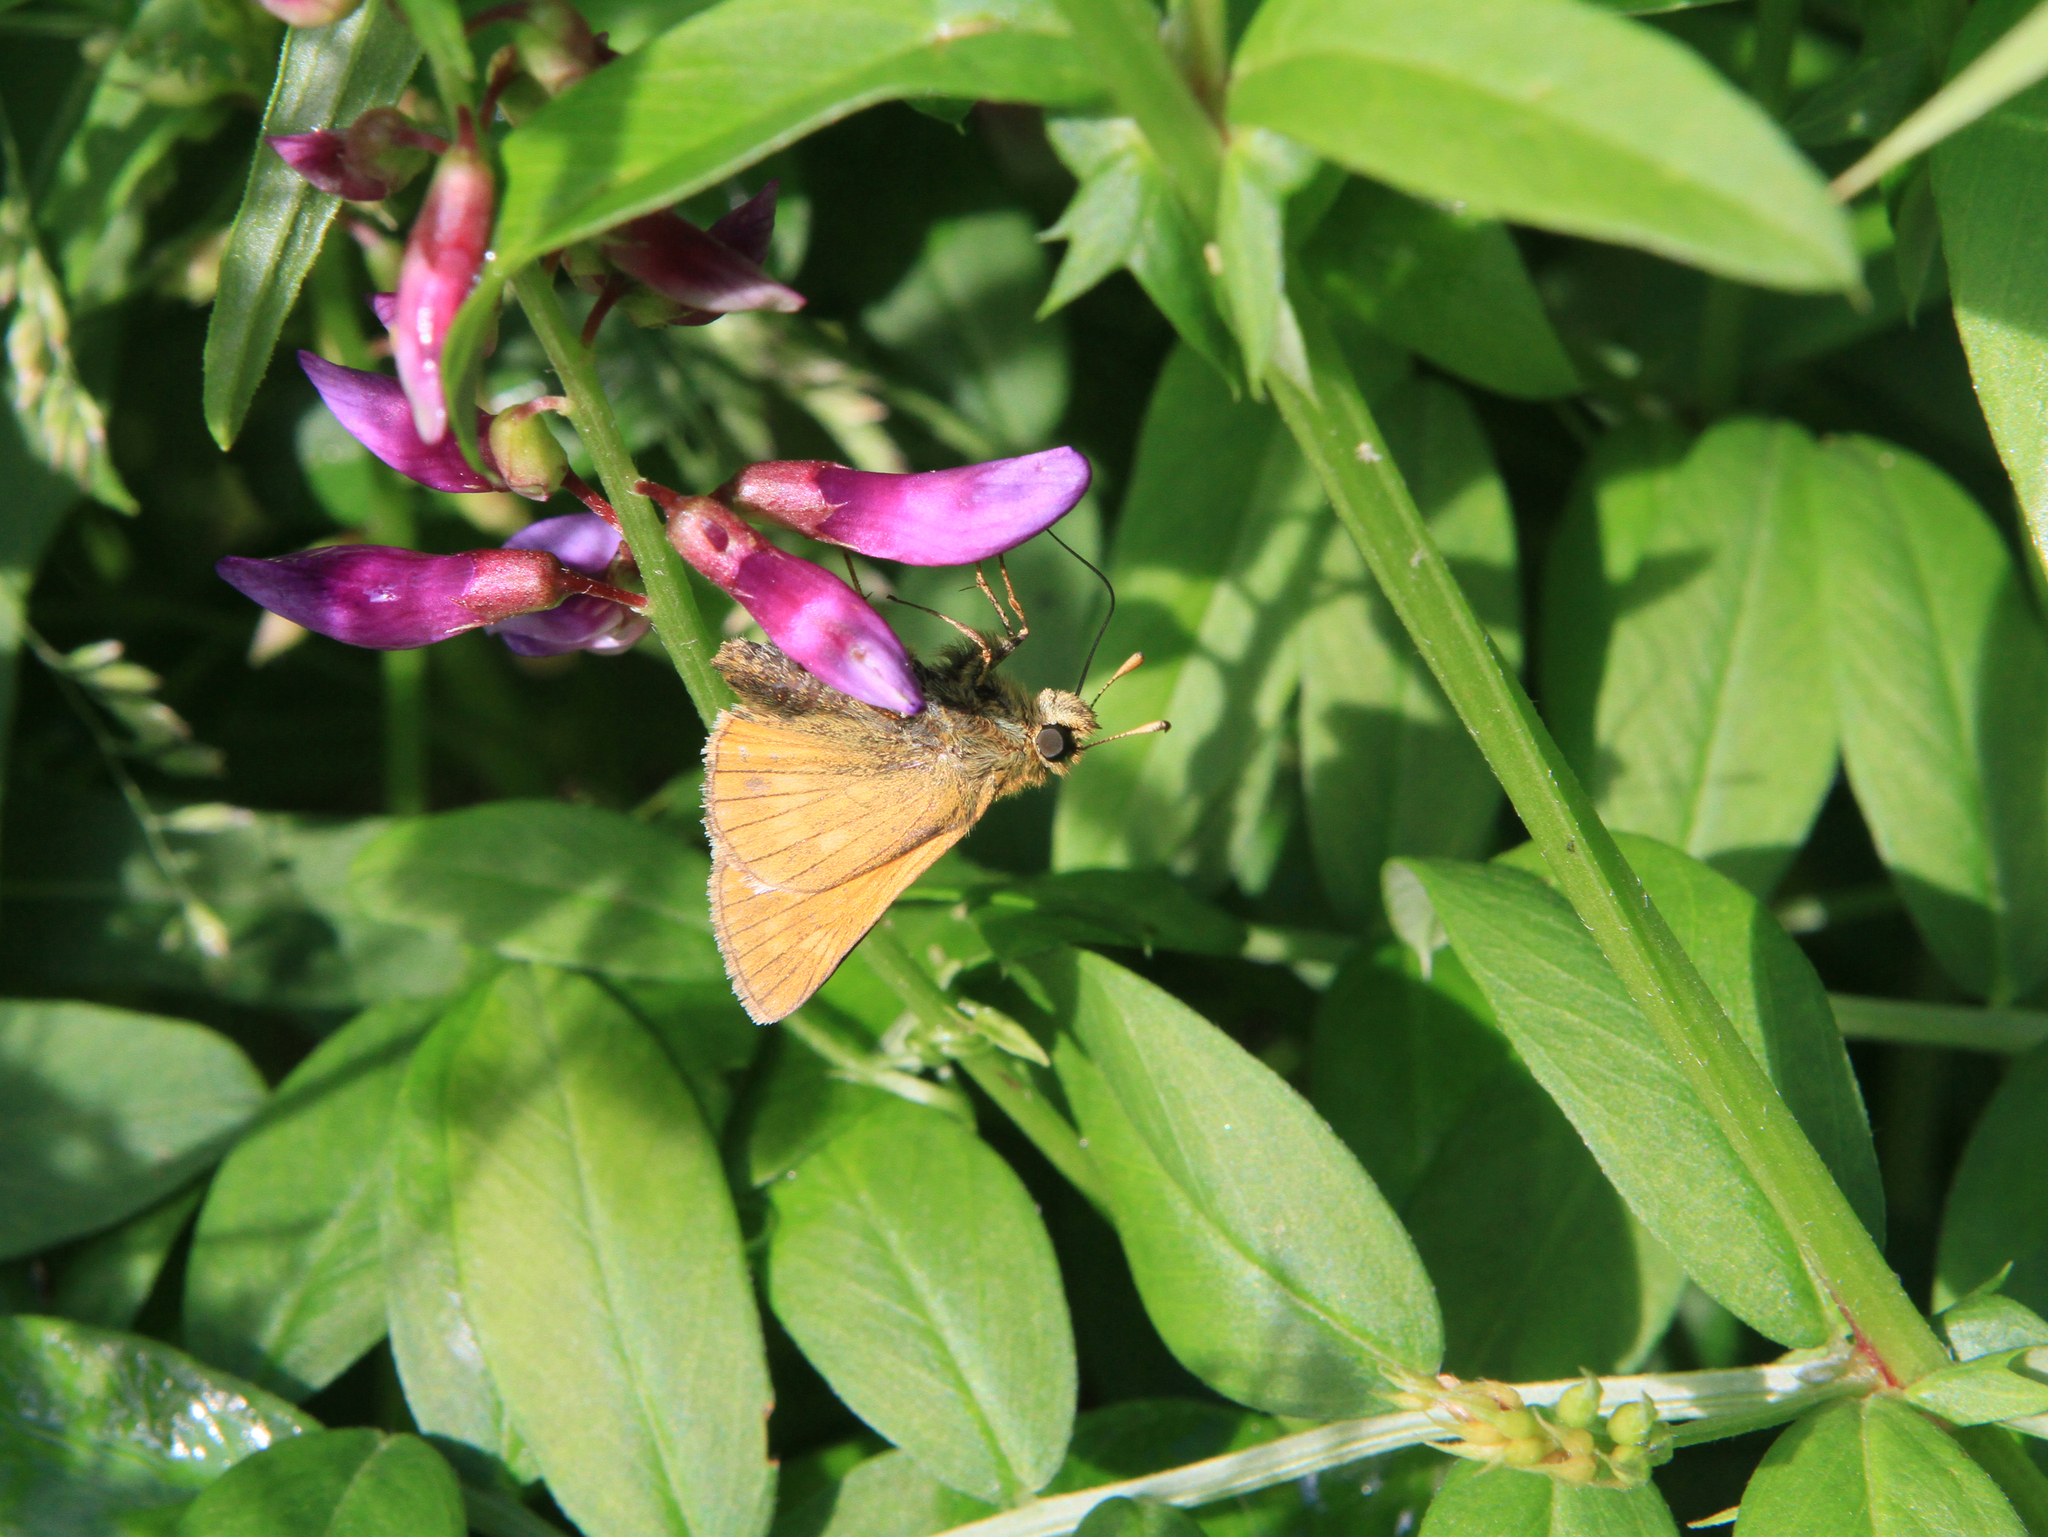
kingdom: Plantae
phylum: Tracheophyta
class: Magnoliopsida
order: Fabales
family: Fabaceae
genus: Vicia
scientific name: Vicia amoena
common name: Cheder ebs
